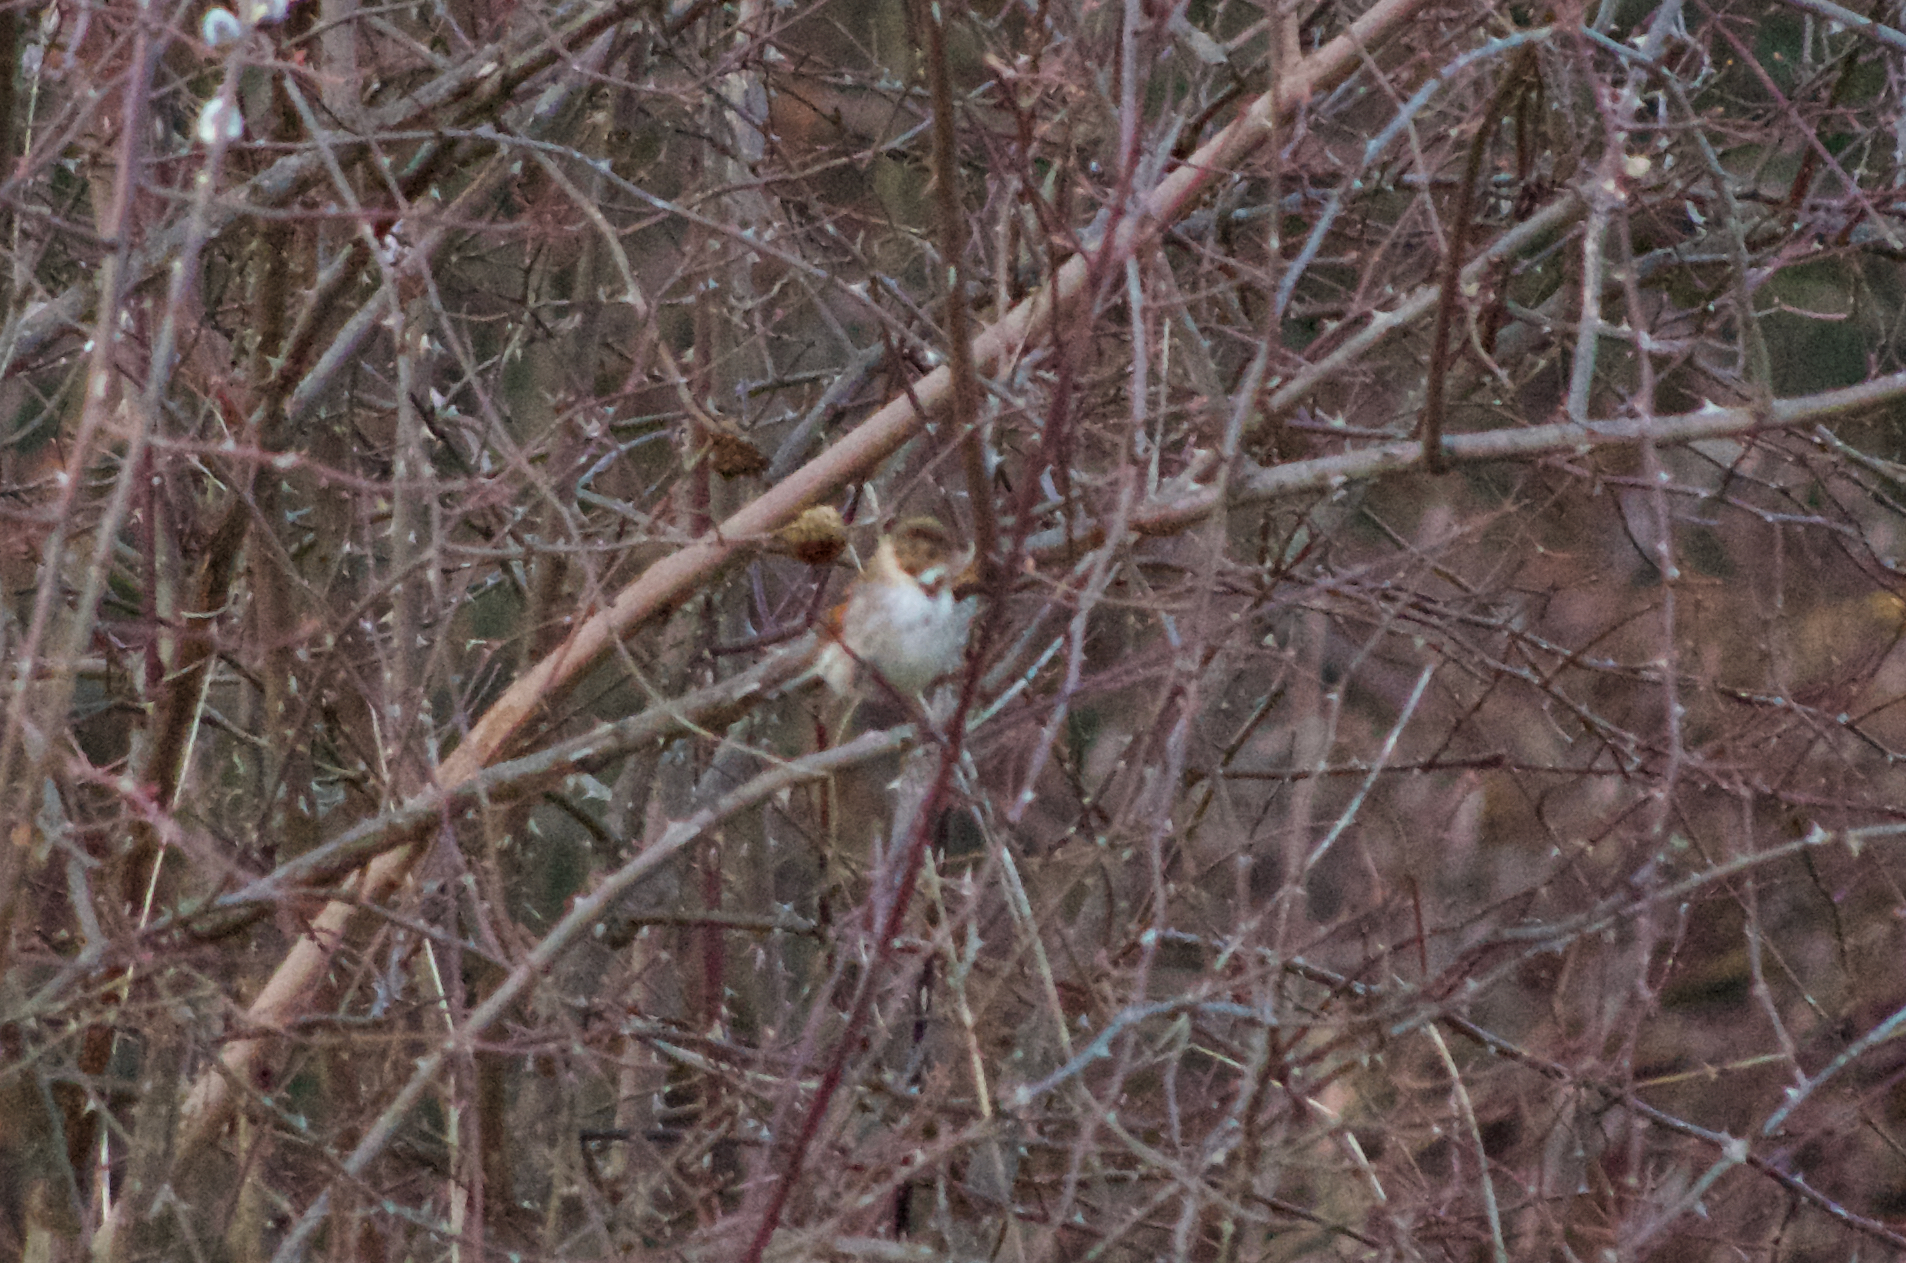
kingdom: Animalia
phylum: Chordata
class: Aves
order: Passeriformes
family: Emberizidae
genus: Emberiza
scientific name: Emberiza schoeniclus
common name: Reed bunting
